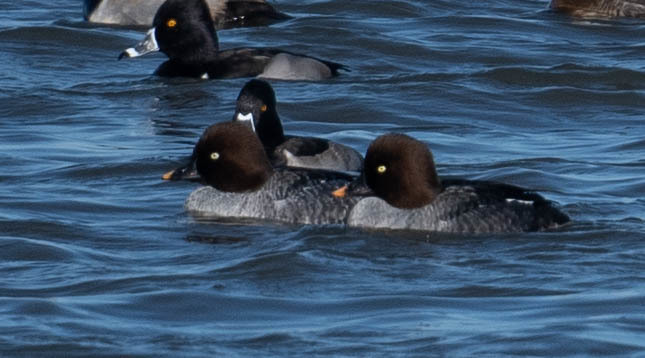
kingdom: Animalia
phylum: Chordata
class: Aves
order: Anseriformes
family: Anatidae
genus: Bucephala
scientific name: Bucephala clangula
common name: Common goldeneye
